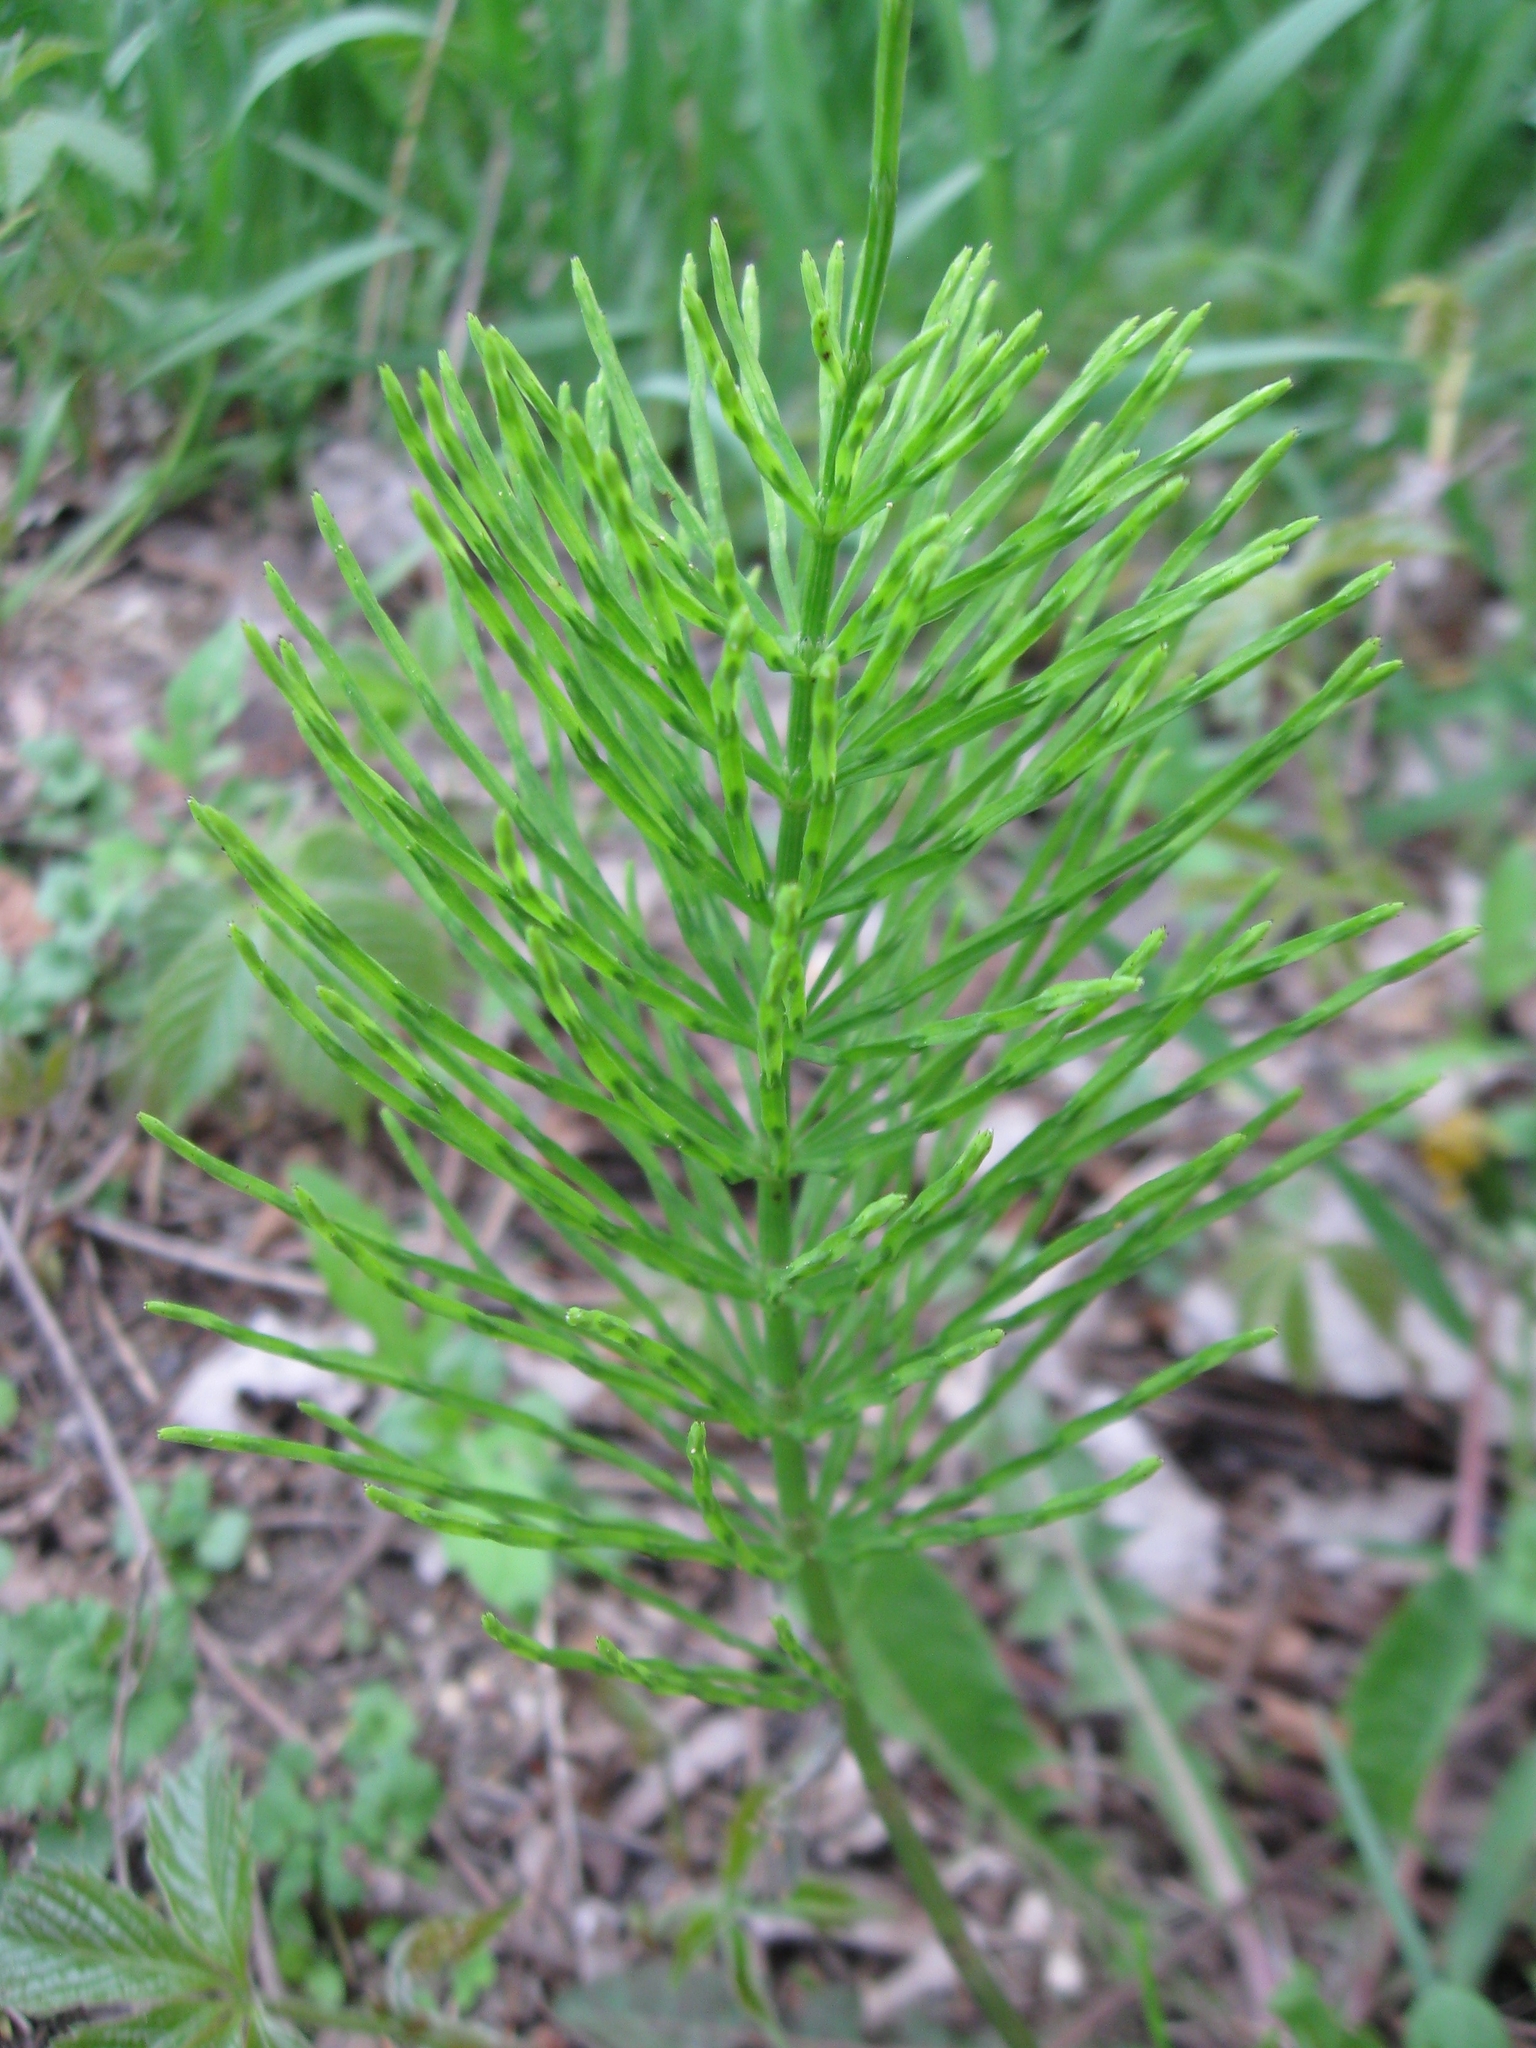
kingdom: Plantae
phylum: Tracheophyta
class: Polypodiopsida
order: Equisetales
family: Equisetaceae
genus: Equisetum
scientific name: Equisetum arvense
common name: Field horsetail
